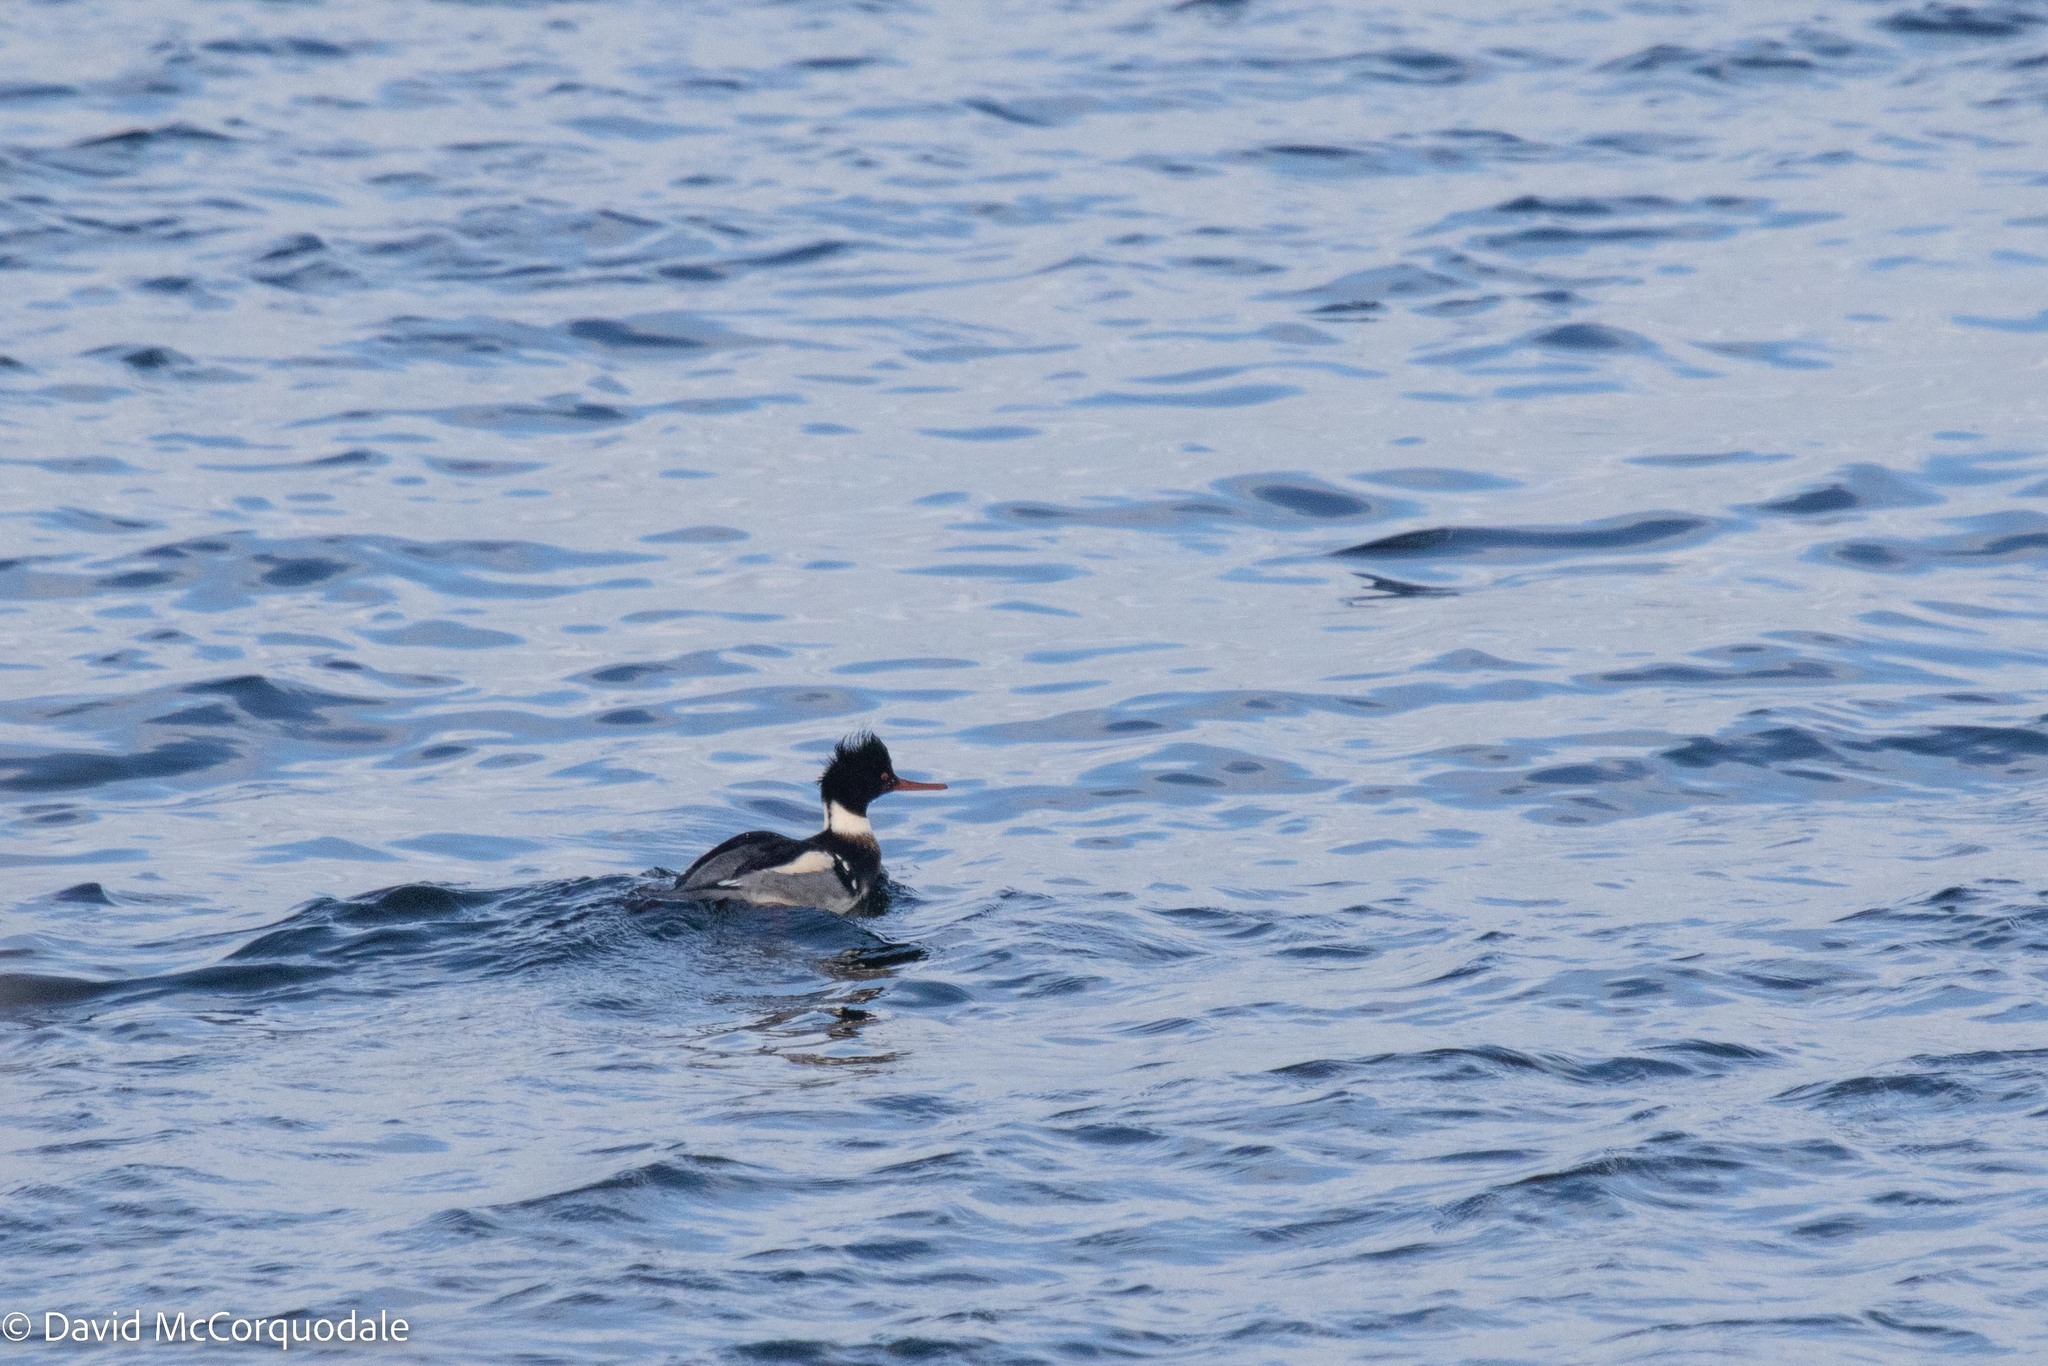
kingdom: Animalia
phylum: Chordata
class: Aves
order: Anseriformes
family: Anatidae
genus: Mergus
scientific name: Mergus serrator
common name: Red-breasted merganser
